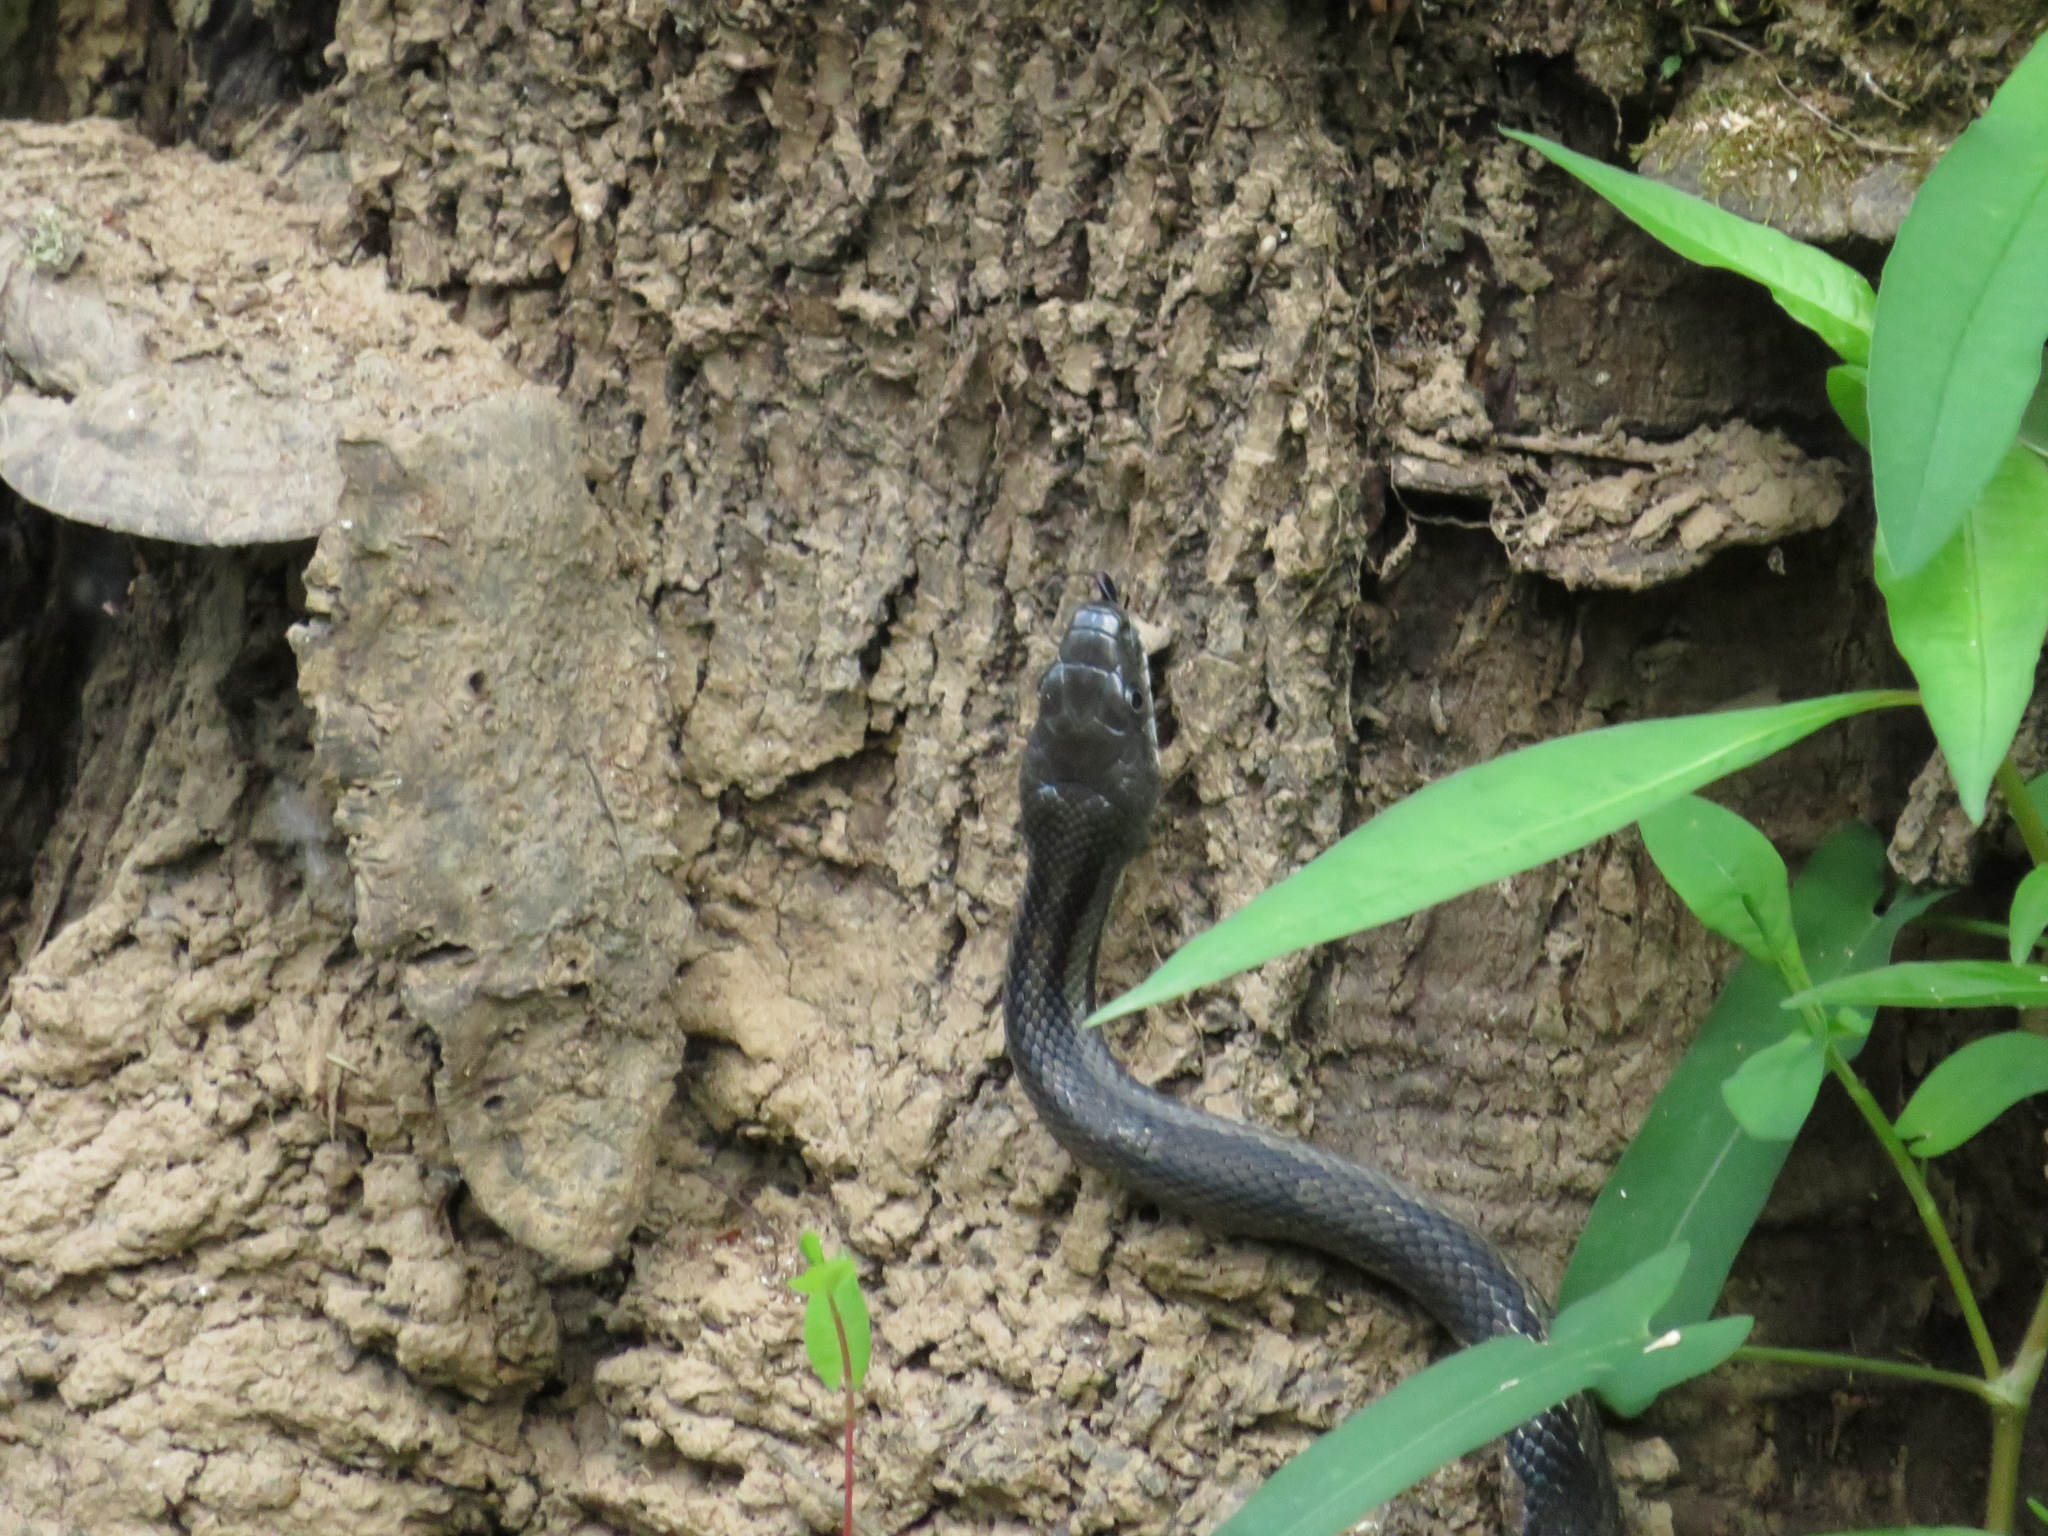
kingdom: Animalia
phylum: Chordata
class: Squamata
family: Colubridae
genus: Pantherophis
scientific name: Pantherophis
